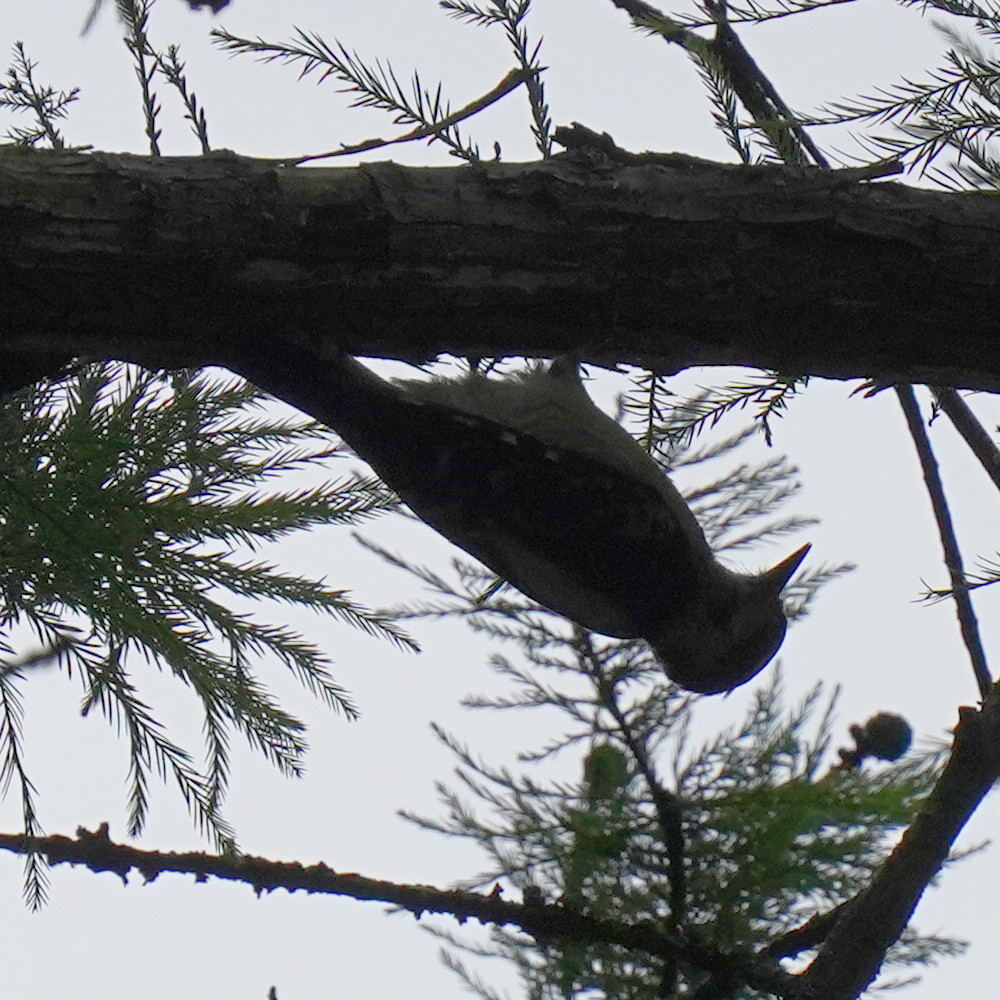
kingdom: Animalia
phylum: Chordata
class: Aves
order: Piciformes
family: Picidae
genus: Dryobates
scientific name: Dryobates pubescens
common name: Downy woodpecker
